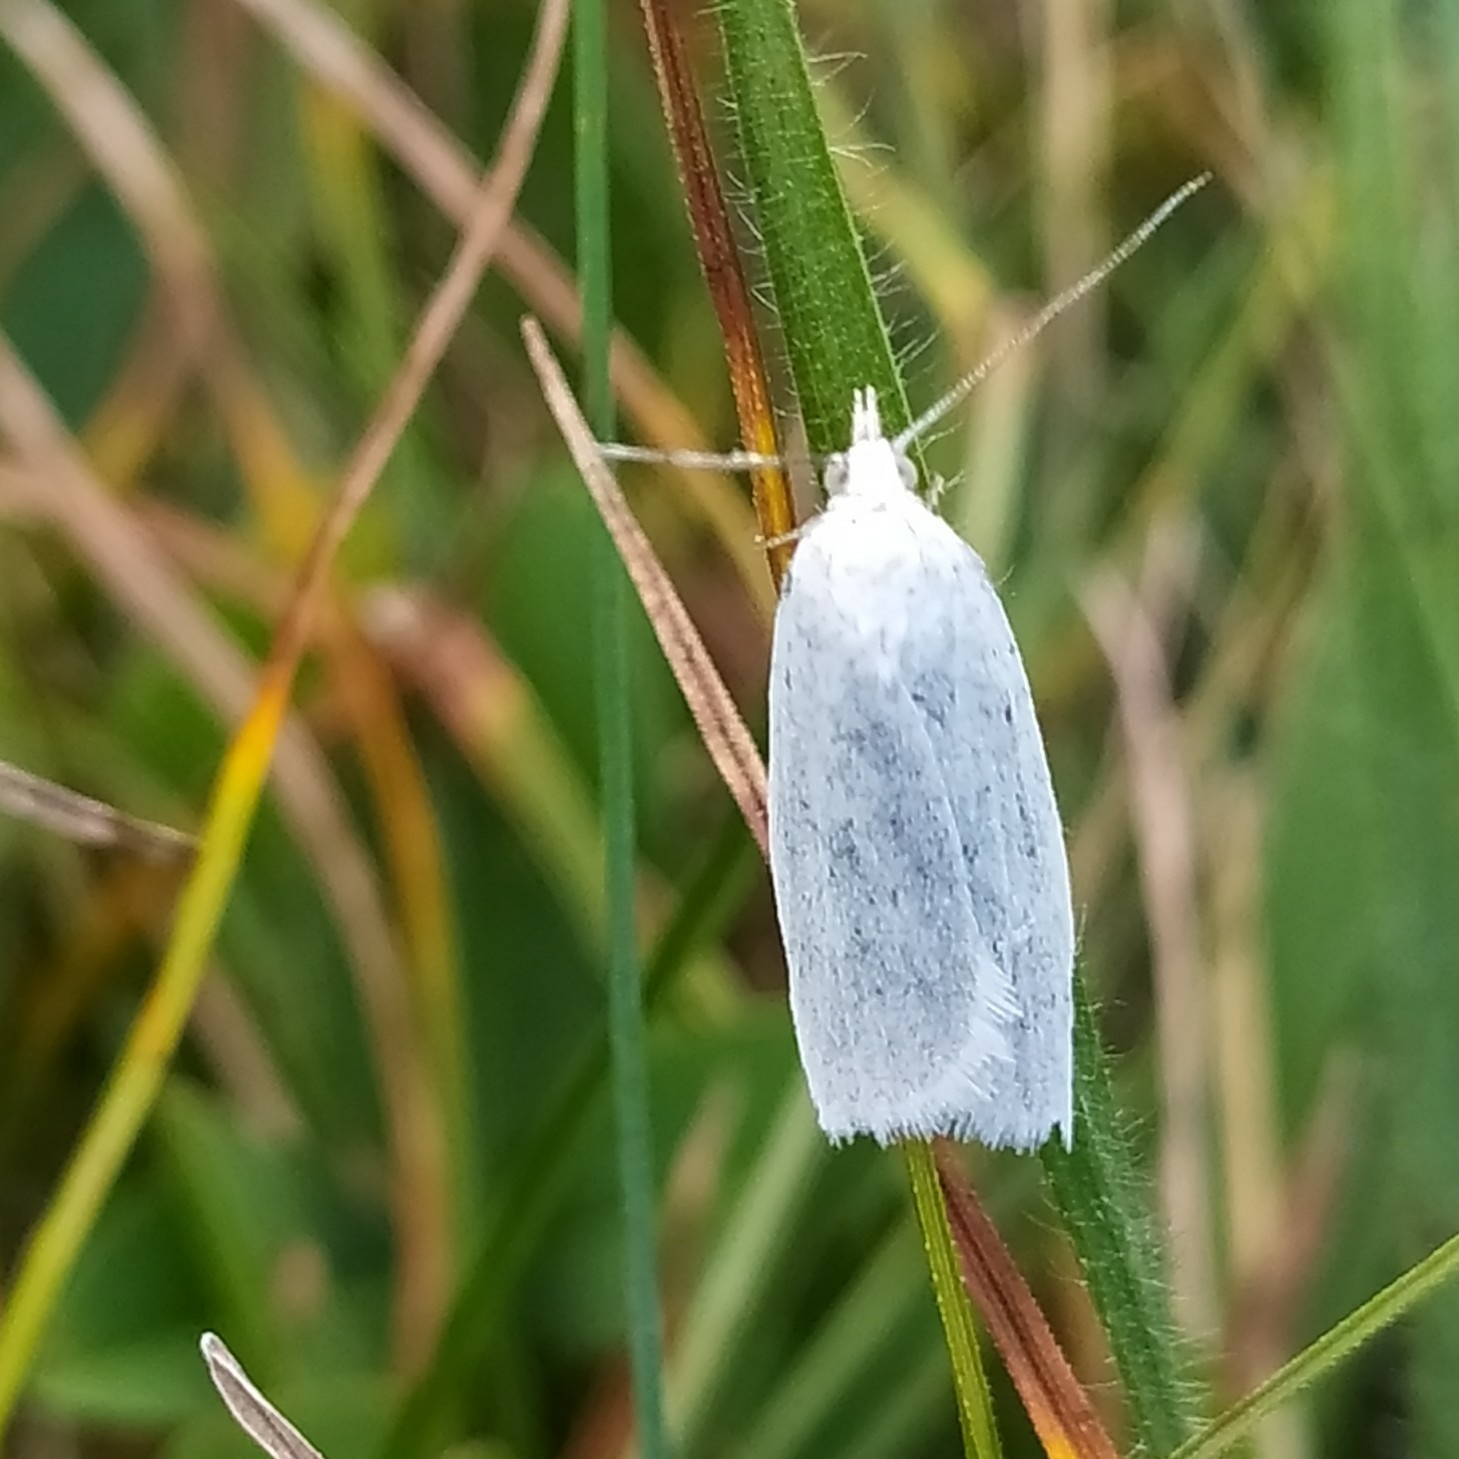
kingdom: Animalia
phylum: Arthropoda
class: Insecta
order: Lepidoptera
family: Tortricidae
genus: Eana
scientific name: Eana argentana
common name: Silver shade
